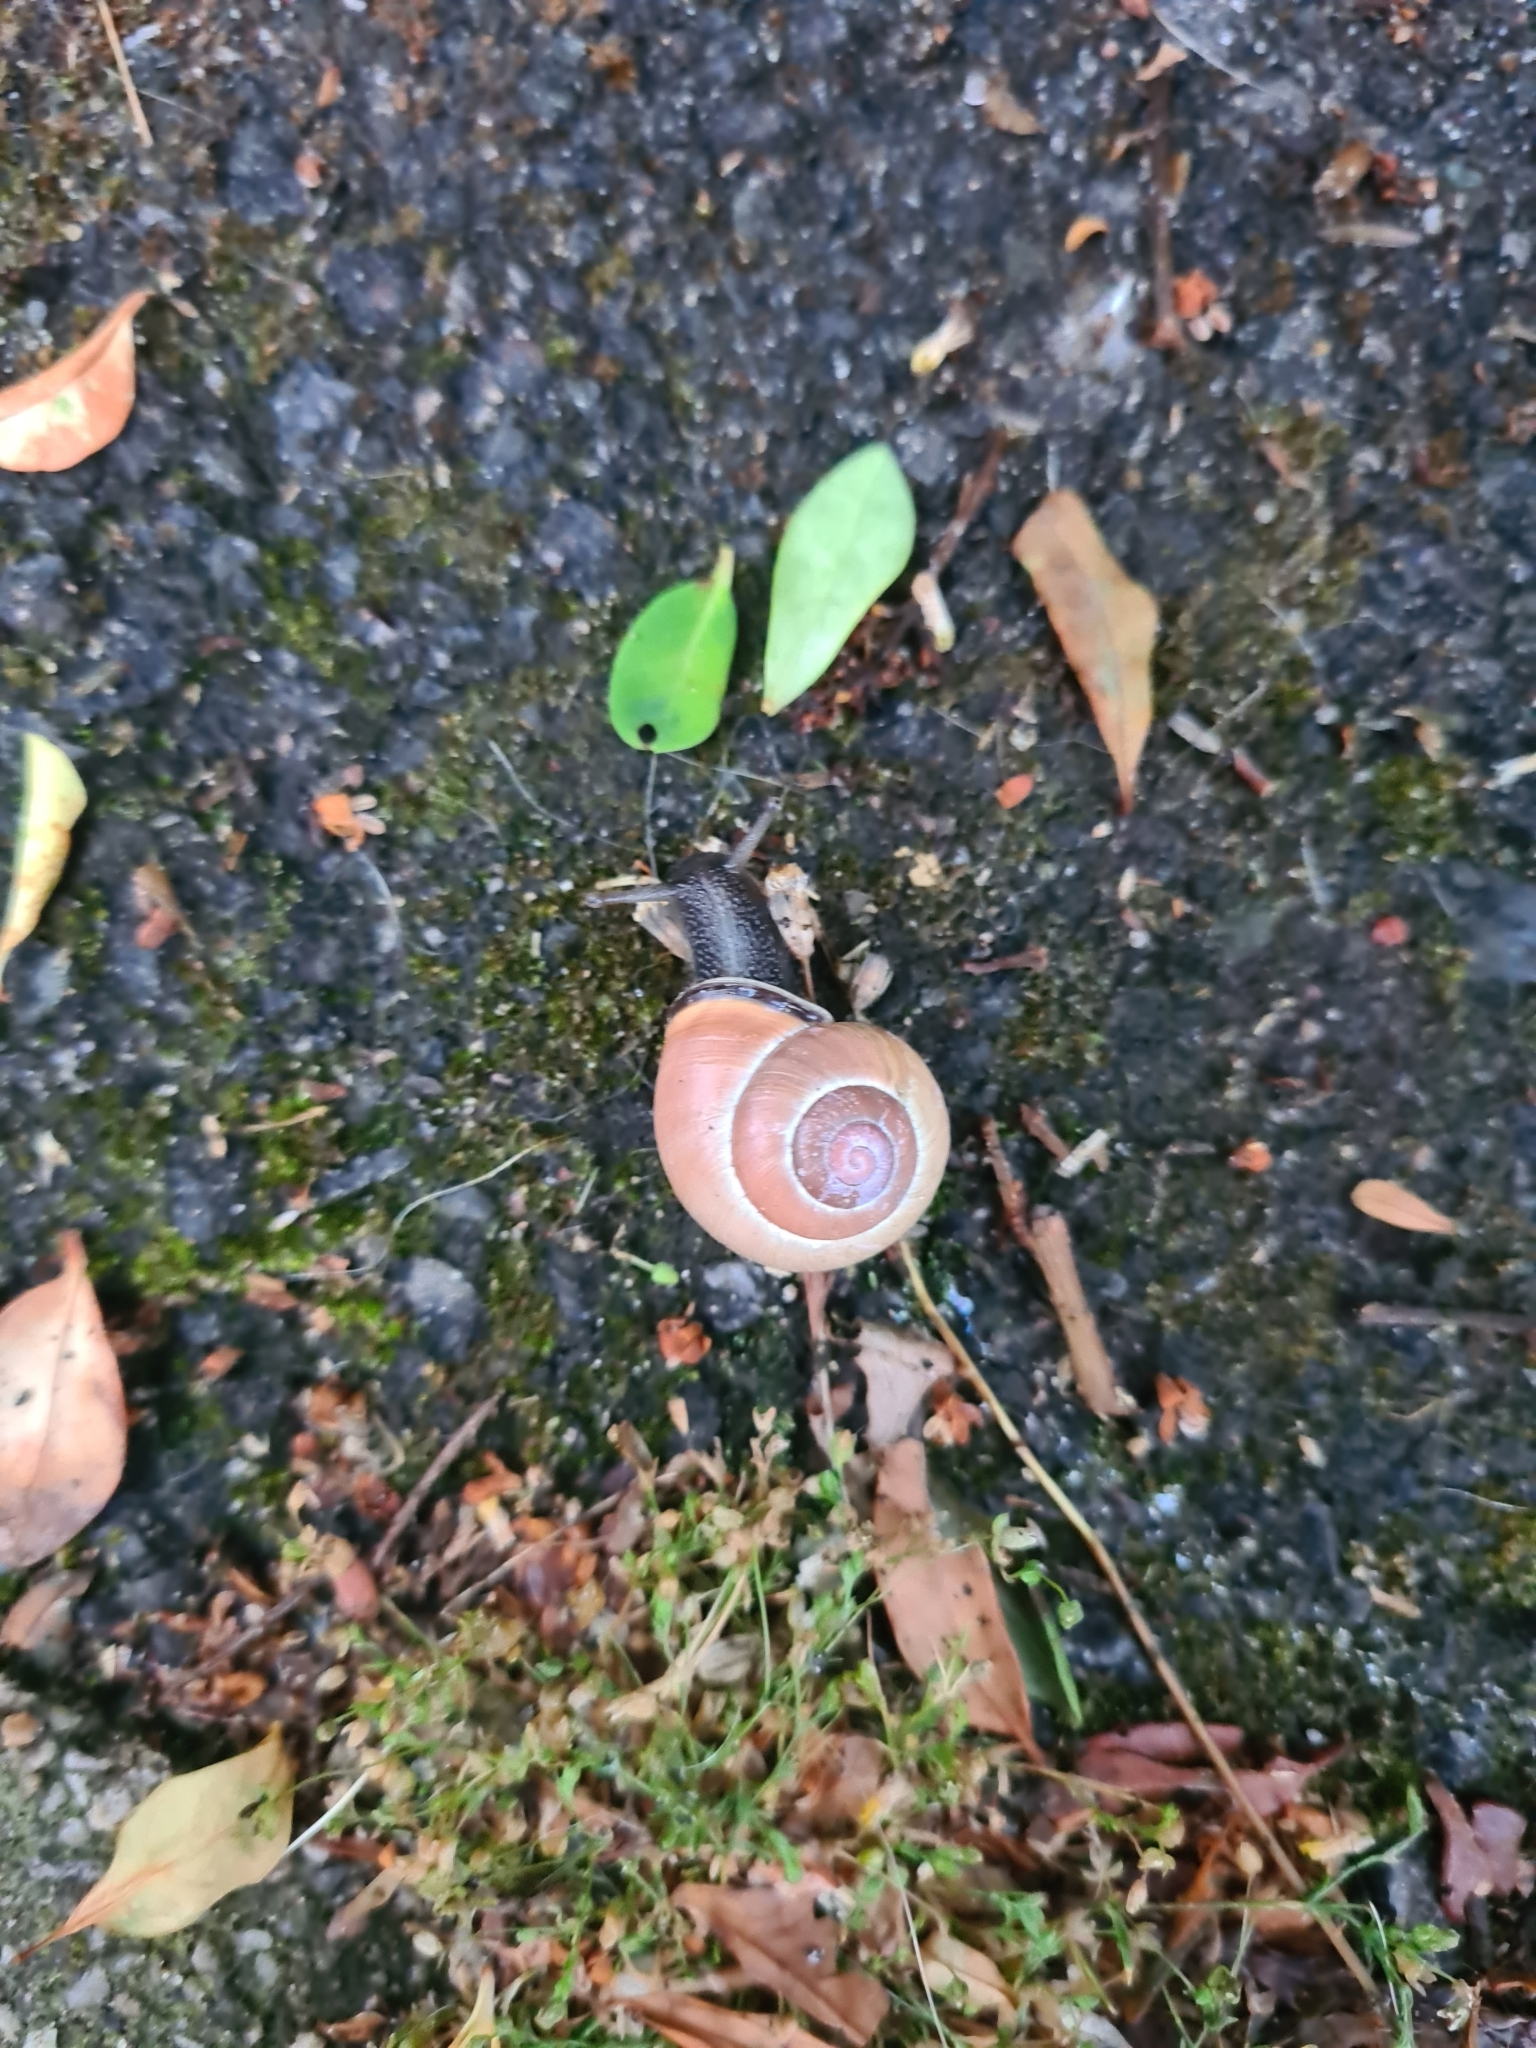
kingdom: Animalia
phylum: Mollusca
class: Gastropoda
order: Stylommatophora
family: Helicidae
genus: Cepaea
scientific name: Cepaea nemoralis
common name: Grovesnail
